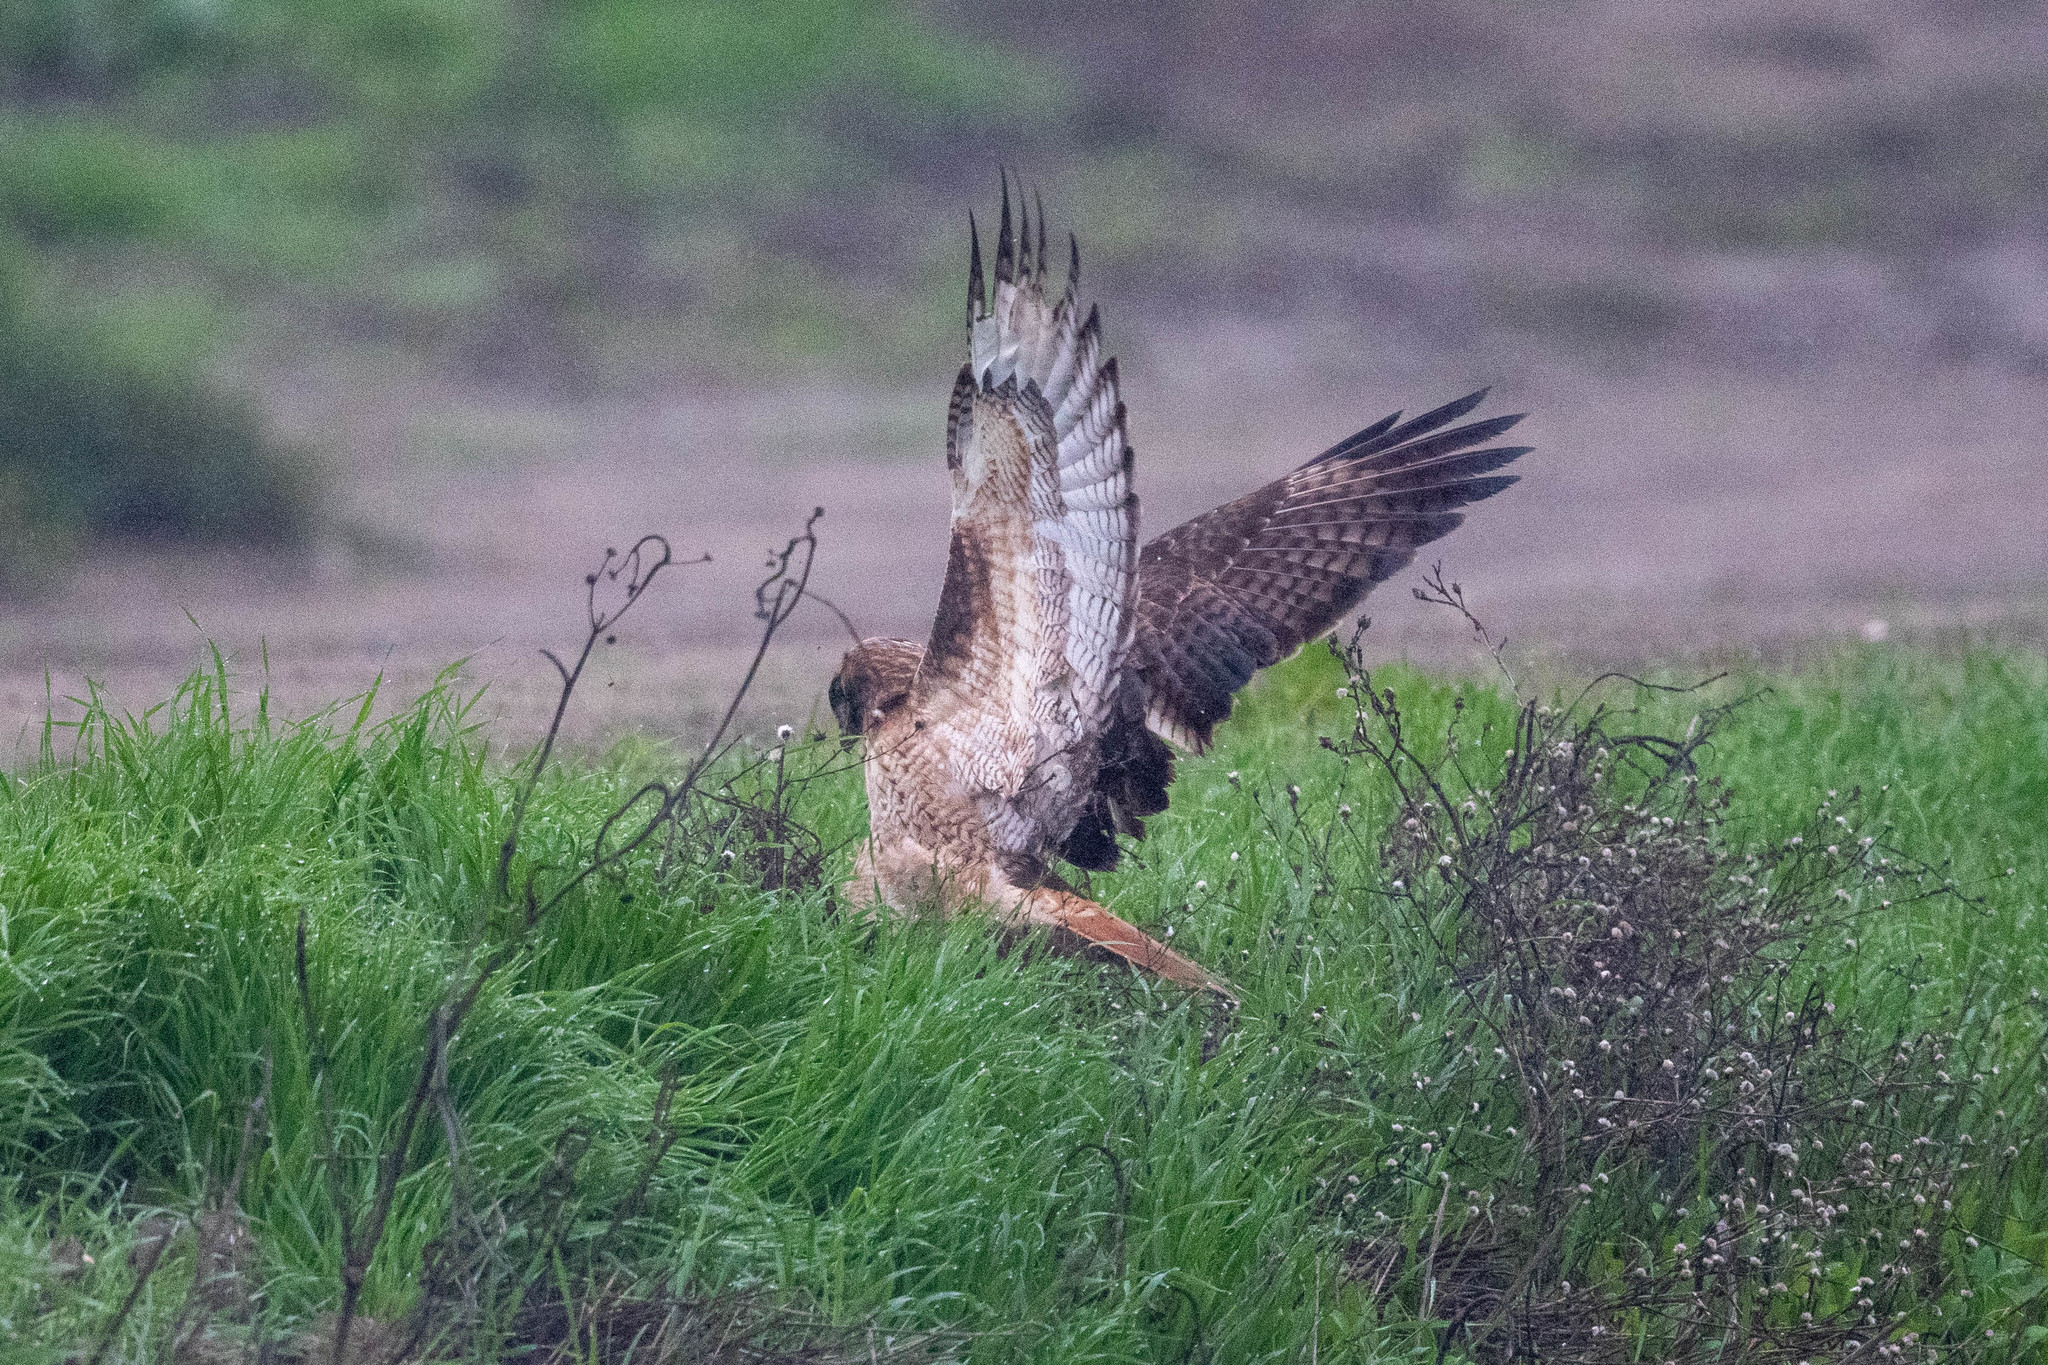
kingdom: Animalia
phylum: Chordata
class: Aves
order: Accipitriformes
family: Accipitridae
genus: Buteo
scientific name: Buteo jamaicensis
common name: Red-tailed hawk
